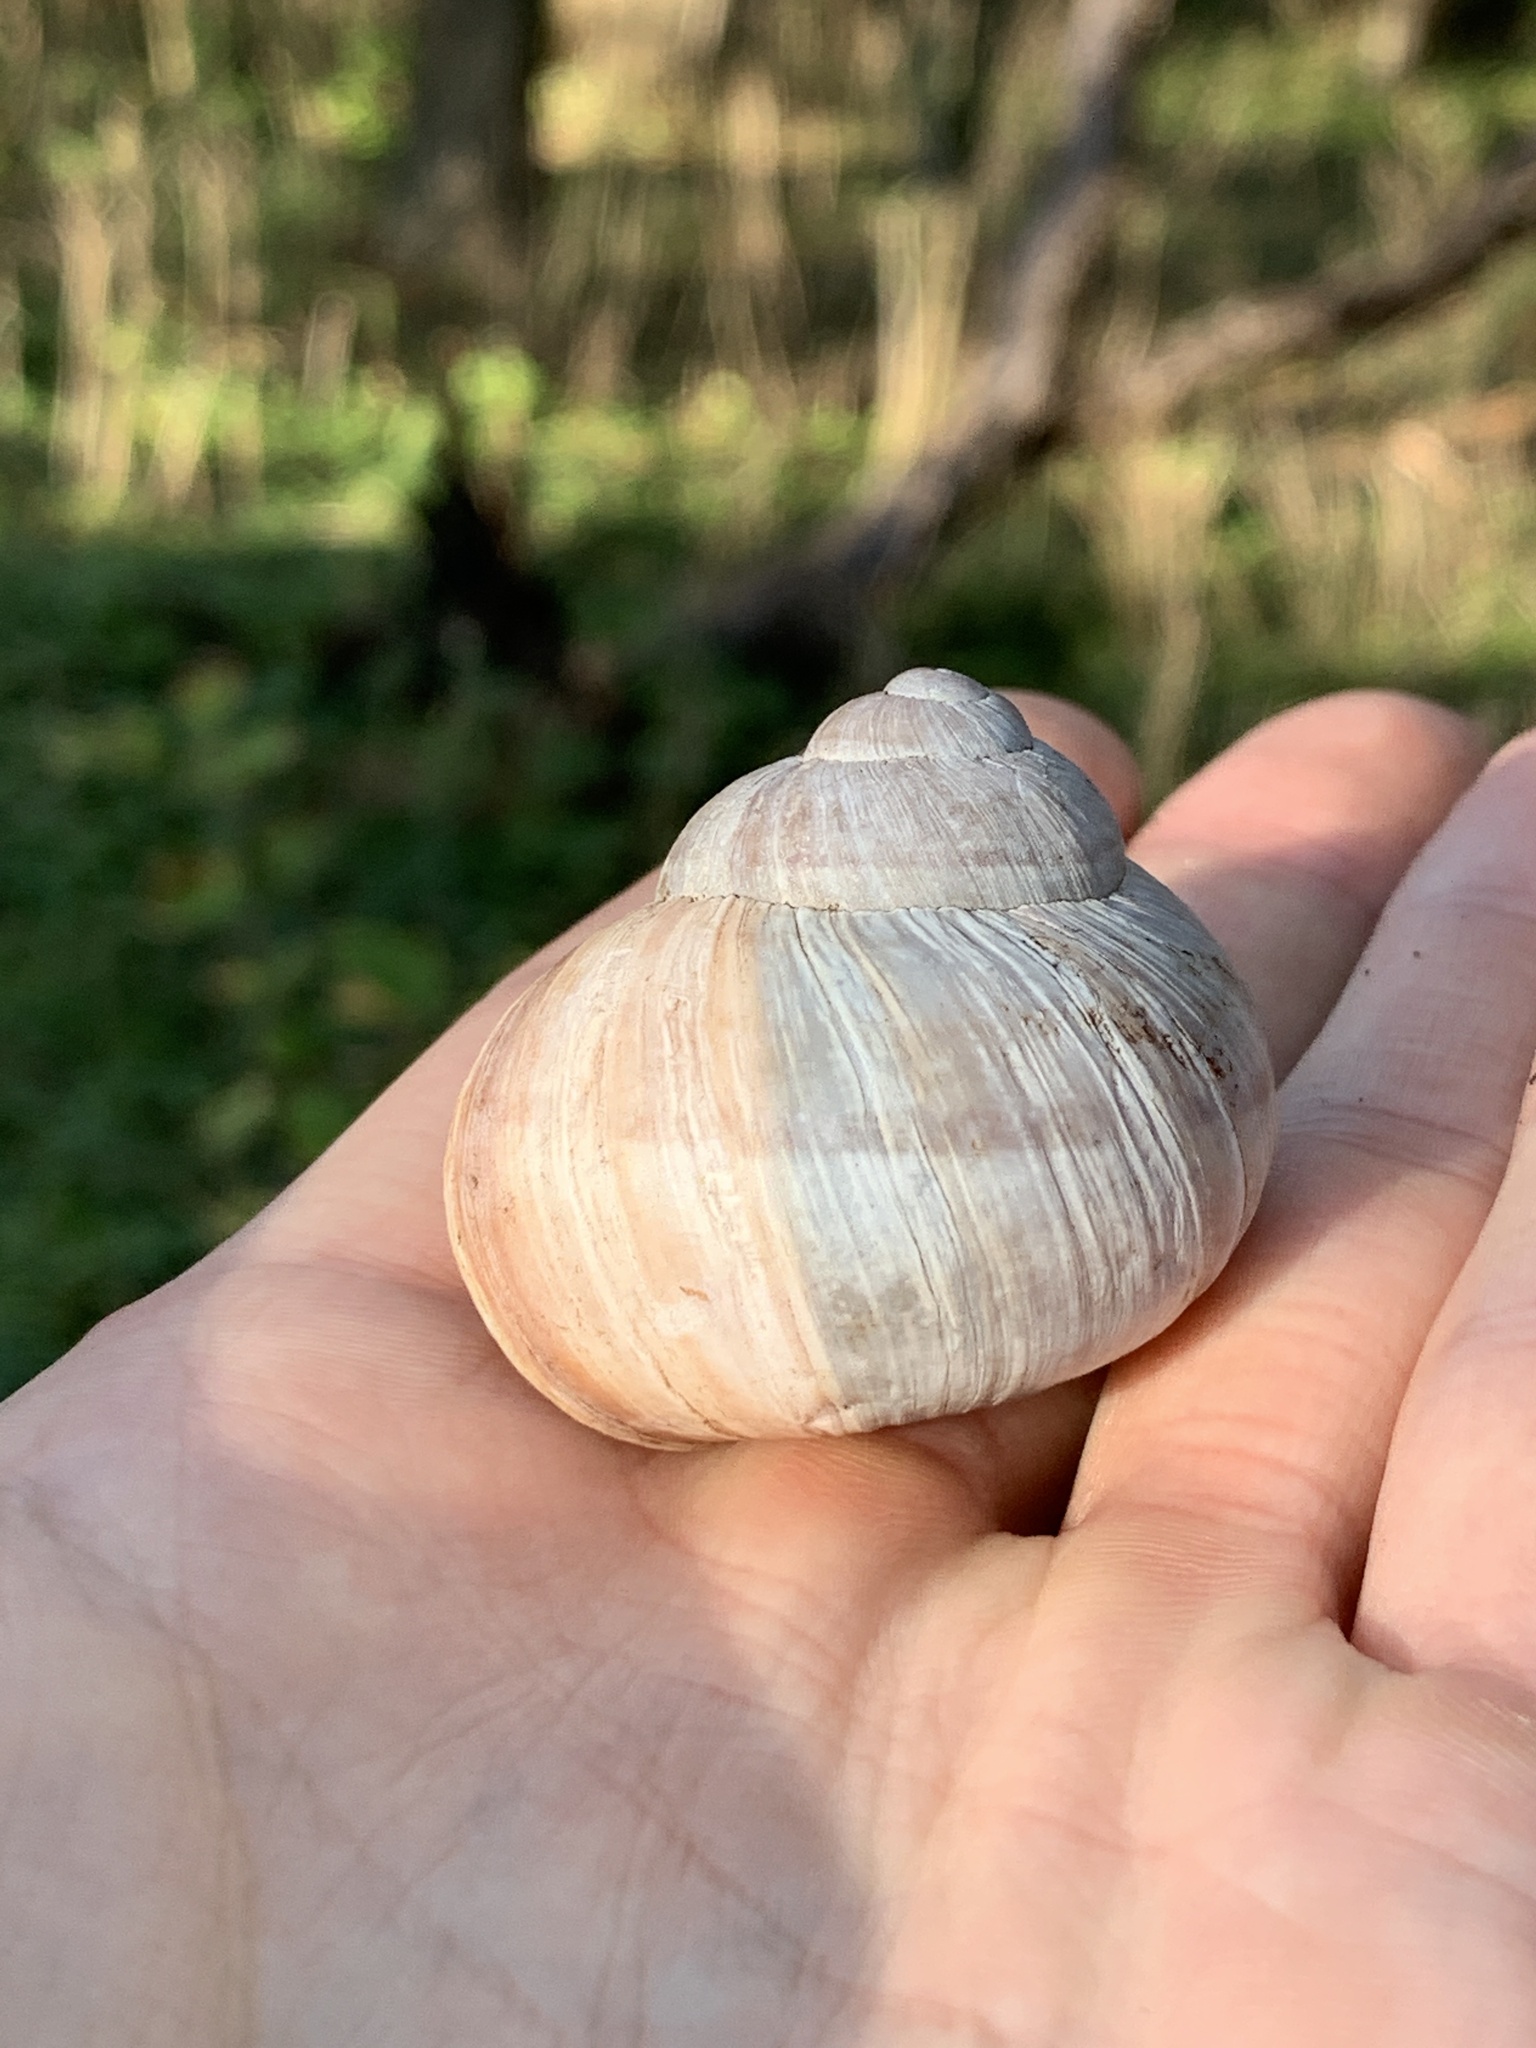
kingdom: Animalia
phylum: Mollusca
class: Gastropoda
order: Stylommatophora
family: Helicidae
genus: Helix
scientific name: Helix pomatia
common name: Roman snail
